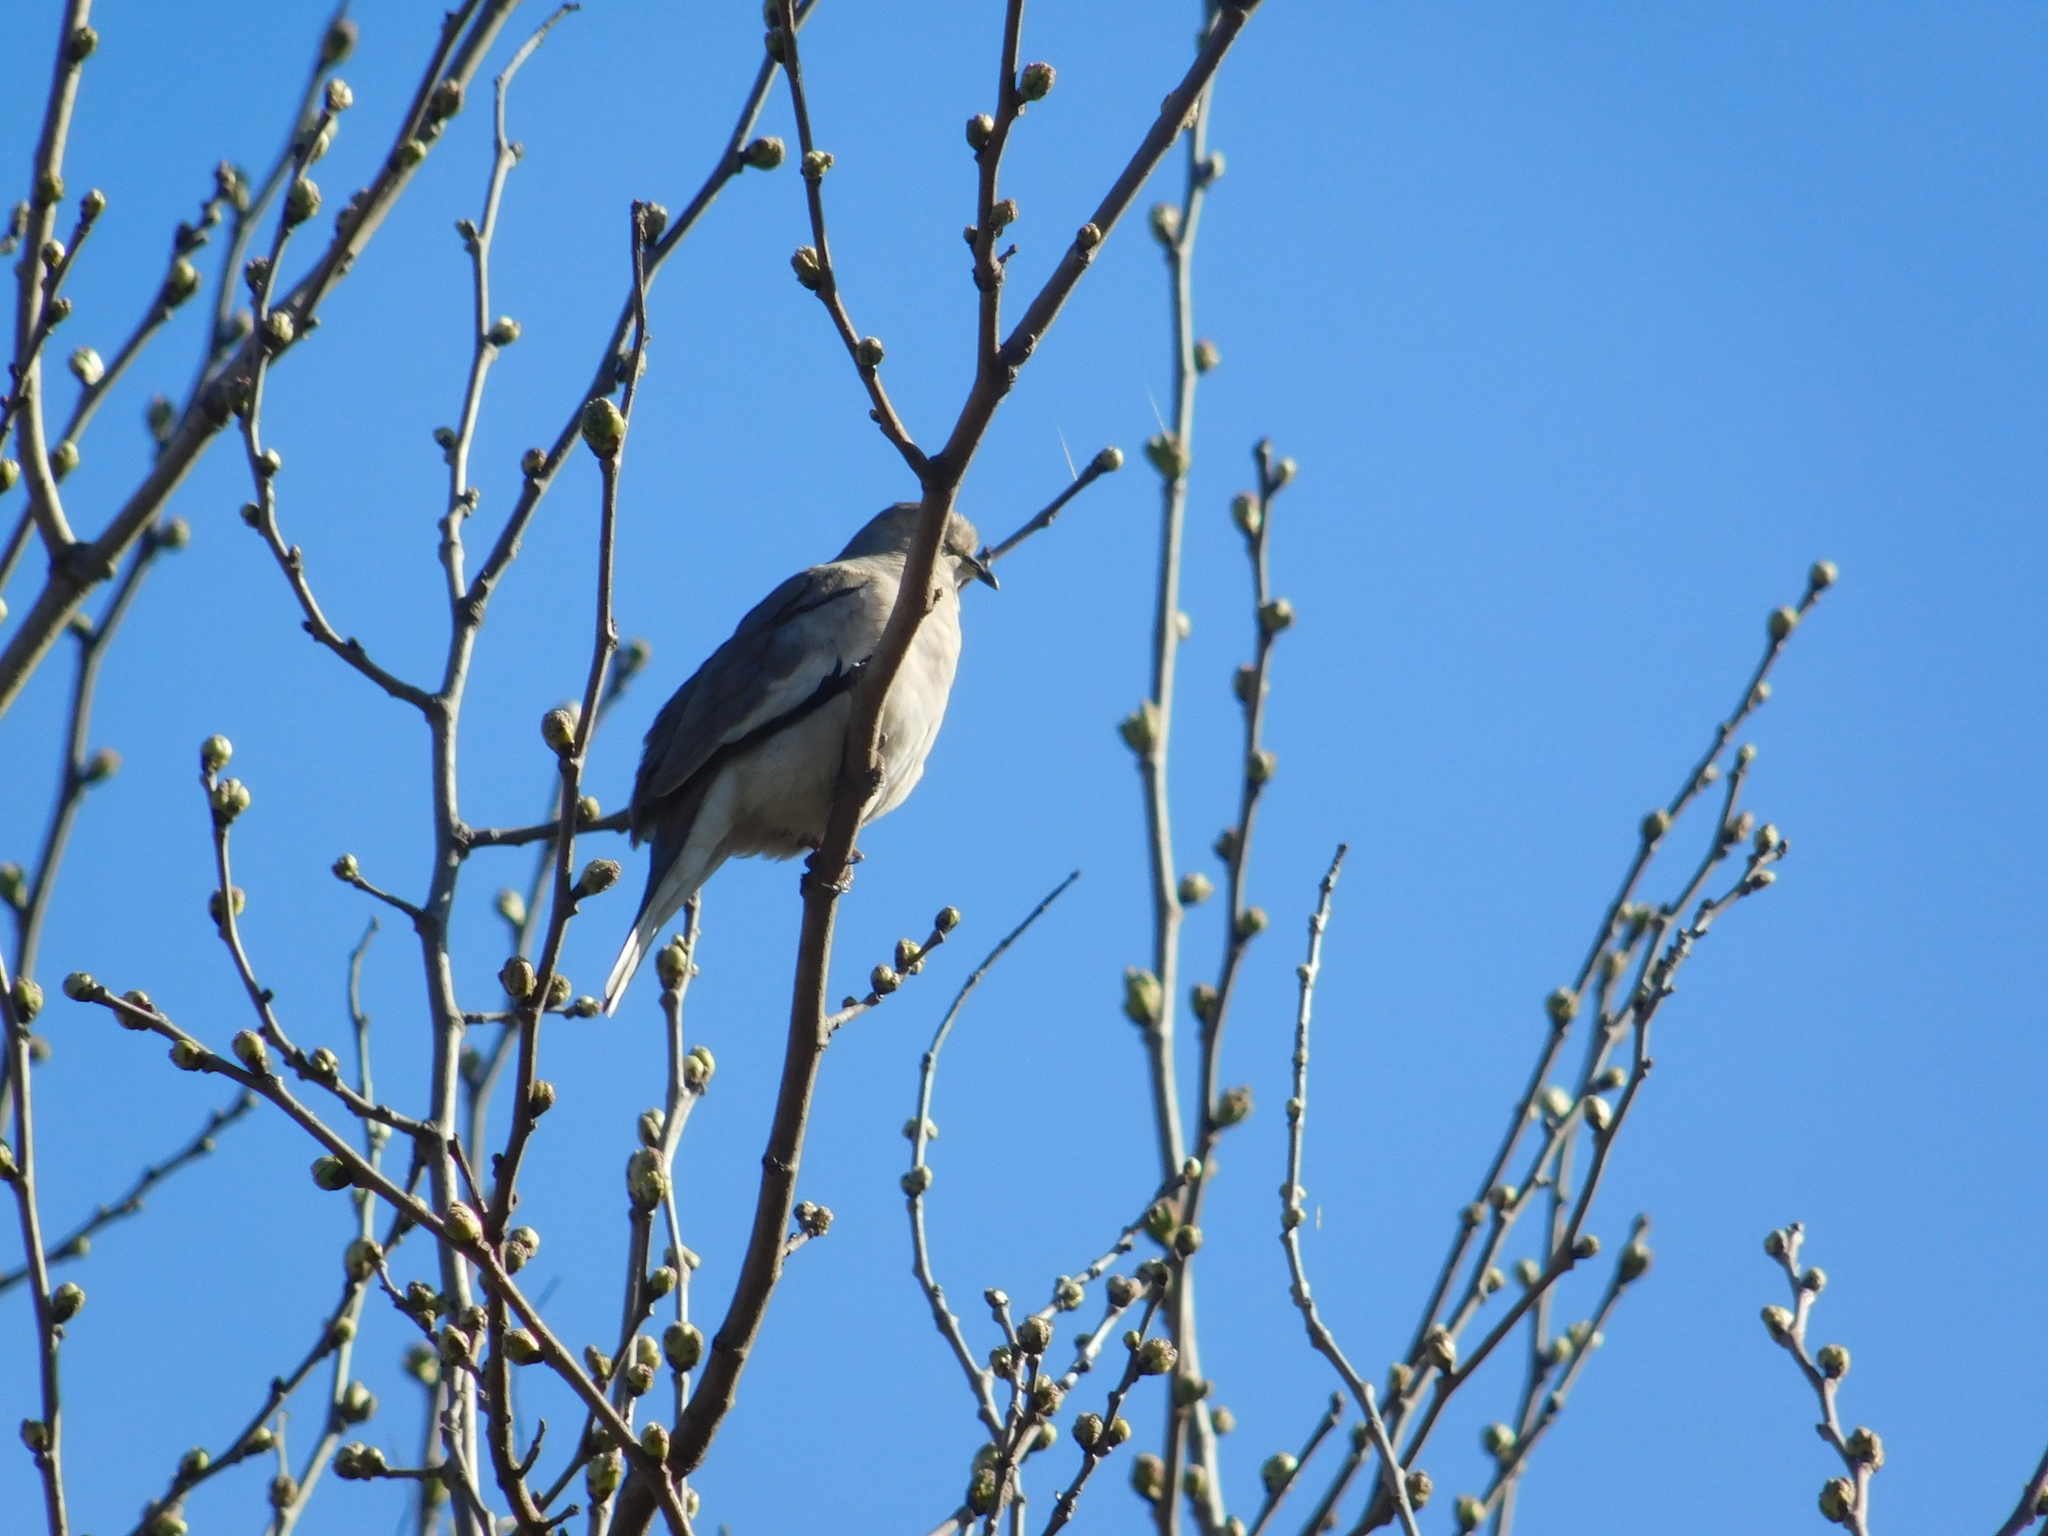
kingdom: Animalia
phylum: Chordata
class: Aves
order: Columbiformes
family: Columbidae
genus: Columbina
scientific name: Columbina picui
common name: Picui ground dove
